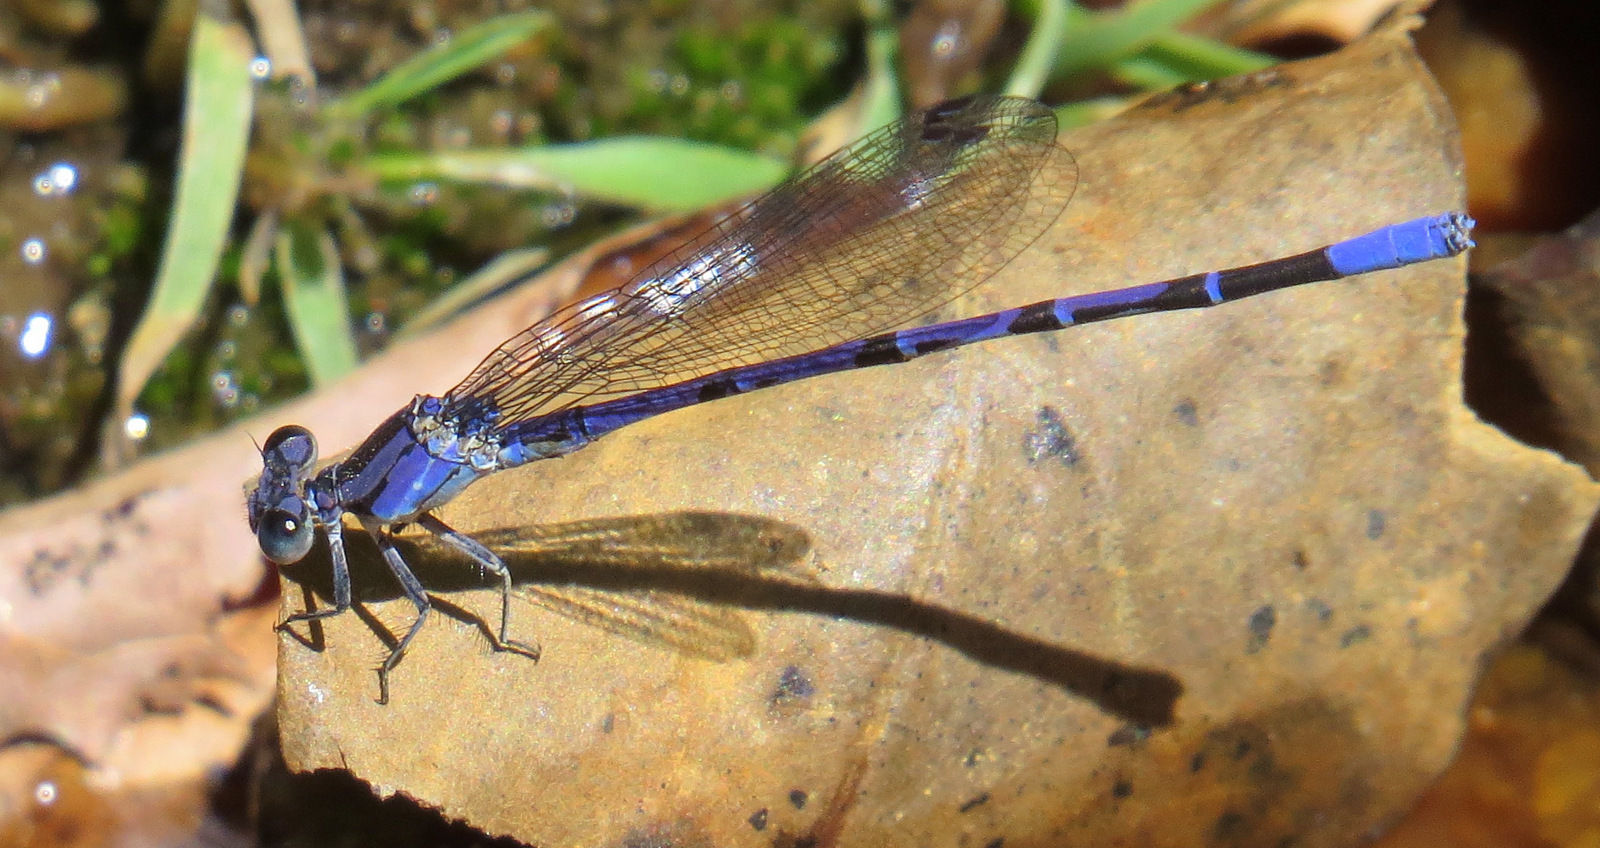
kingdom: Animalia
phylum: Arthropoda
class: Insecta
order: Odonata
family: Coenagrionidae
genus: Argia
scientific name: Argia funebris
